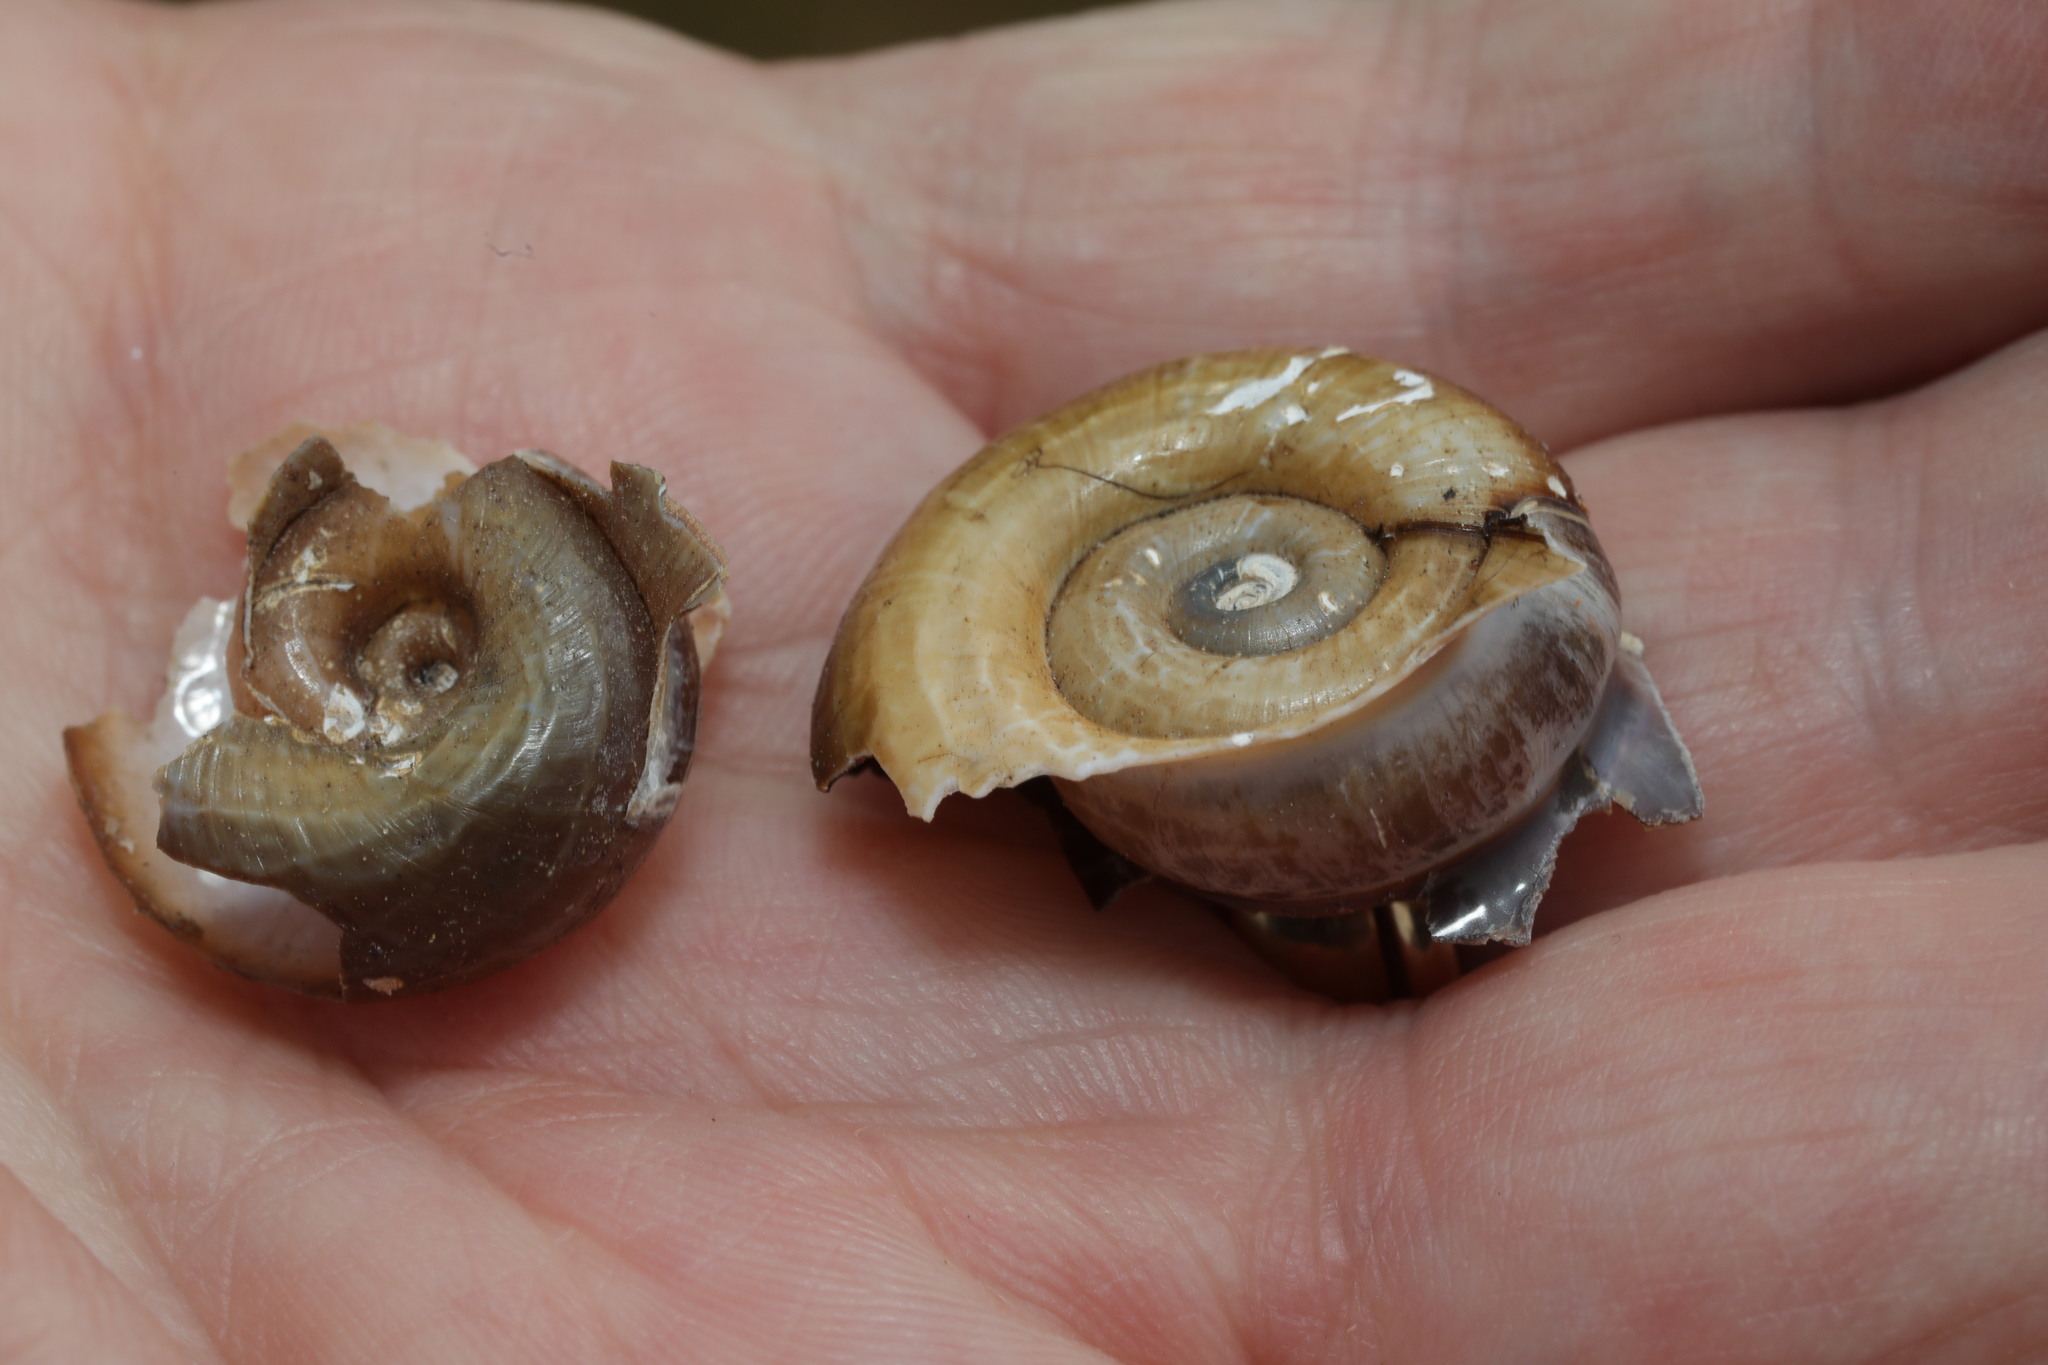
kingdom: Animalia
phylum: Mollusca
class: Gastropoda
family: Planorbidae
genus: Planorbarius
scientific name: Planorbarius corneus
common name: Great ramshorn
